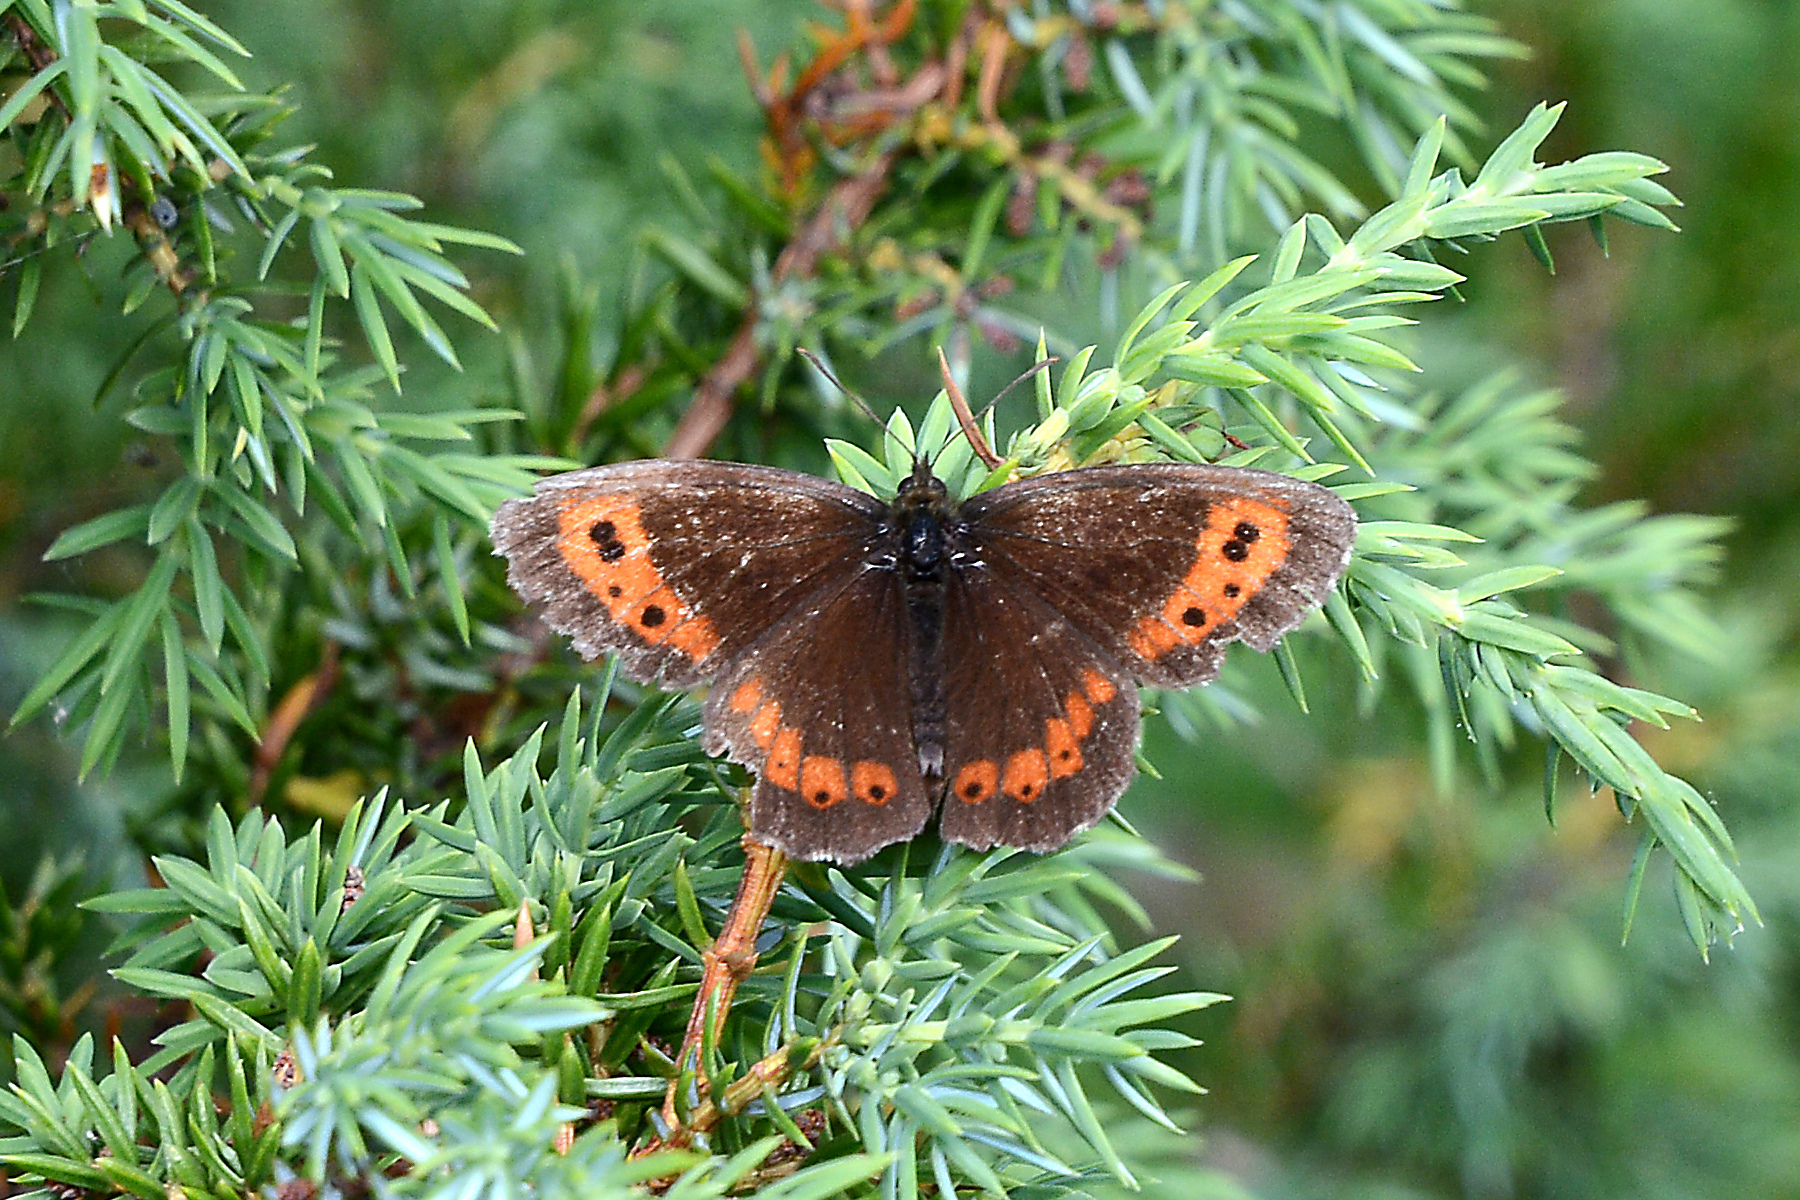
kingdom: Animalia
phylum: Arthropoda
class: Insecta
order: Lepidoptera
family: Nymphalidae
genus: Erebia
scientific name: Erebia ligea
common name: Arran brown
